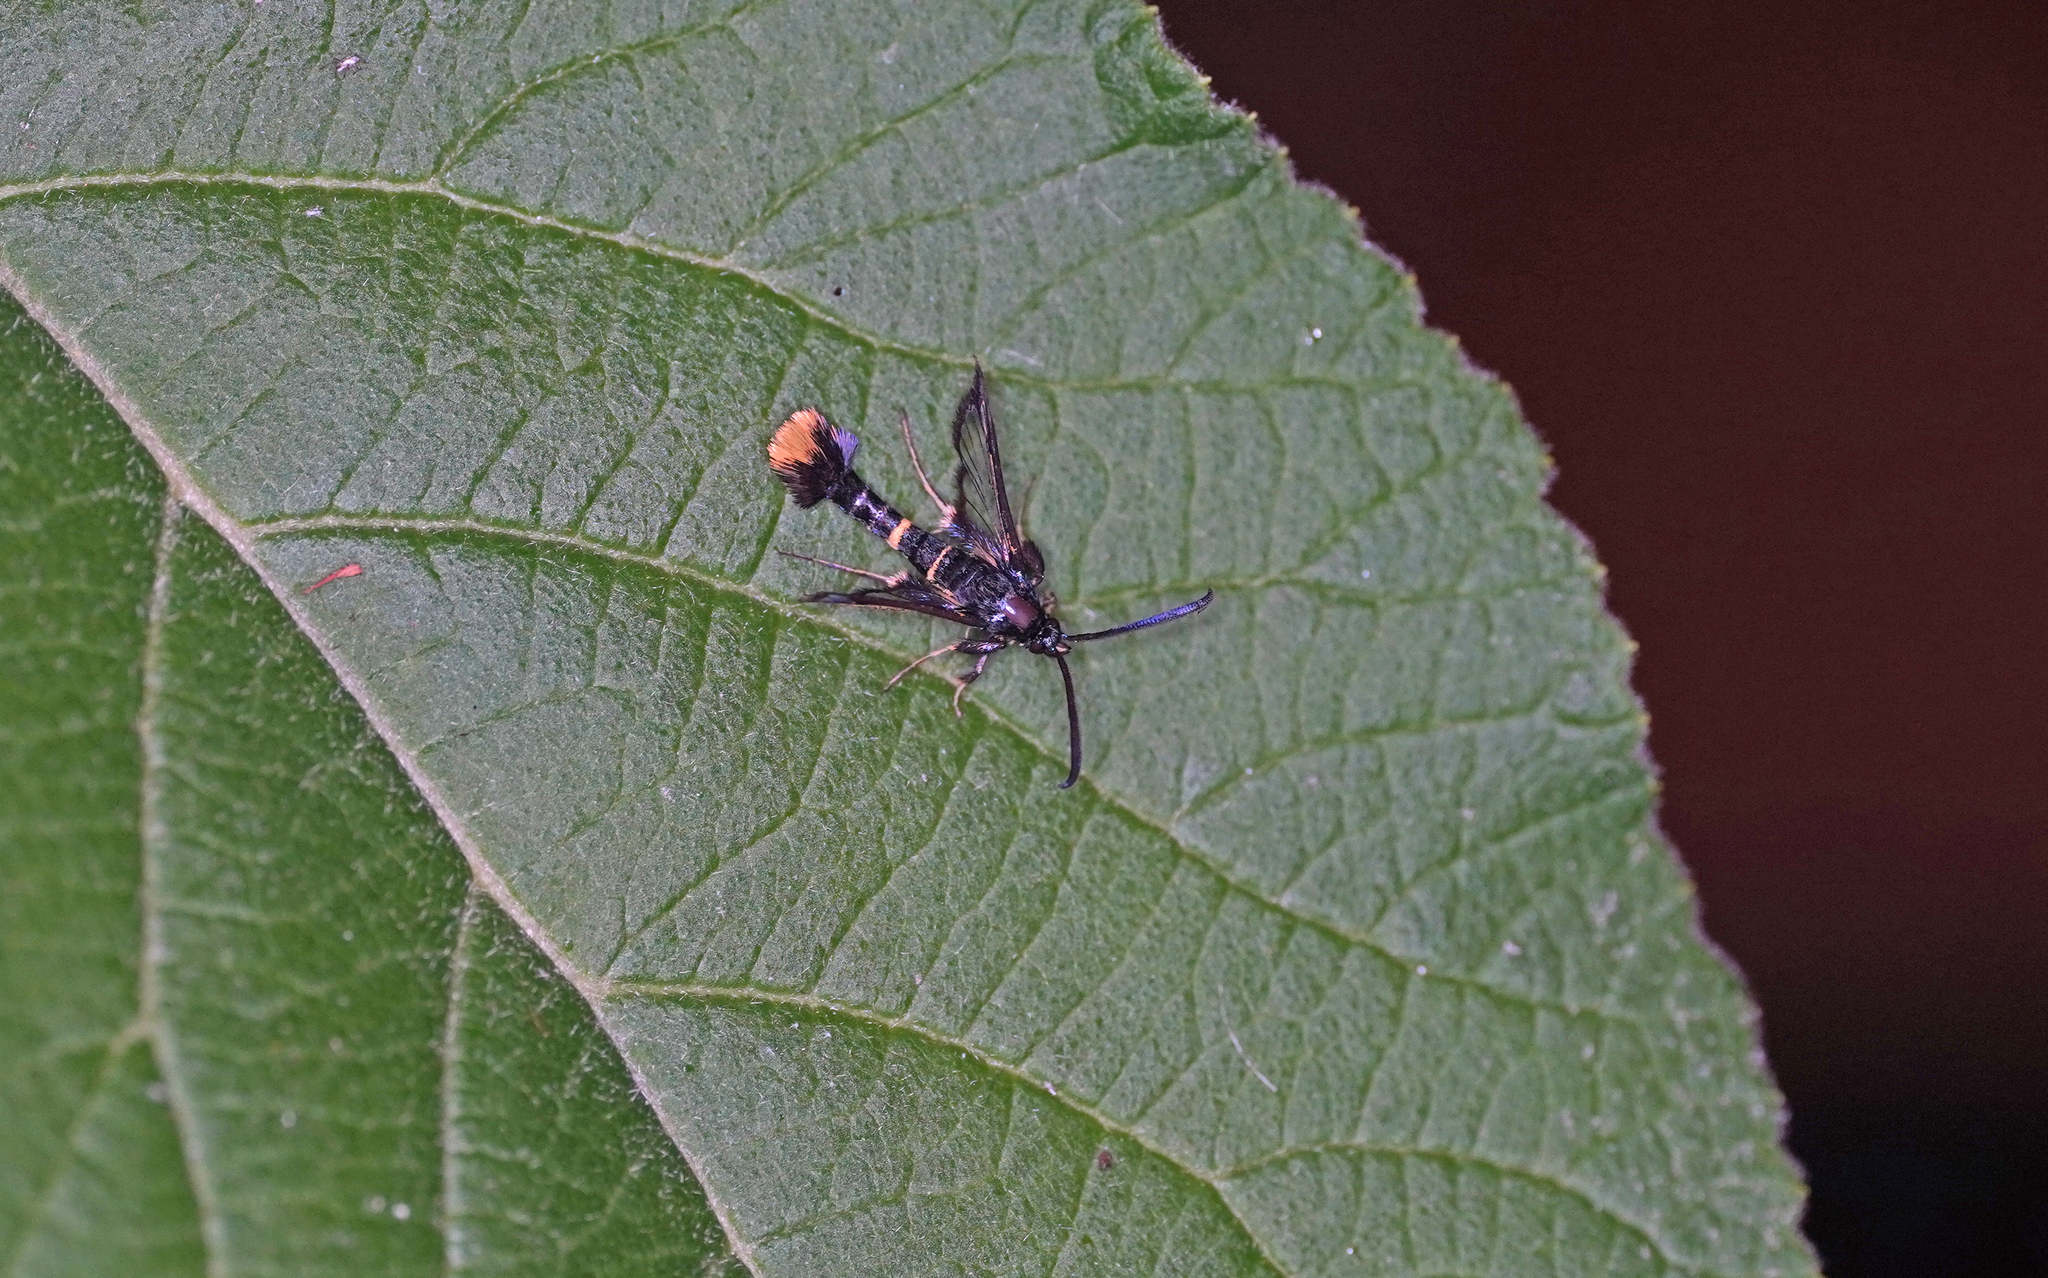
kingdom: Animalia
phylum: Arthropoda
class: Insecta
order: Lepidoptera
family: Sesiidae
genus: Synanthedon
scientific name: Synanthedon andrenaeformis
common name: Orange-tailed clearwing
